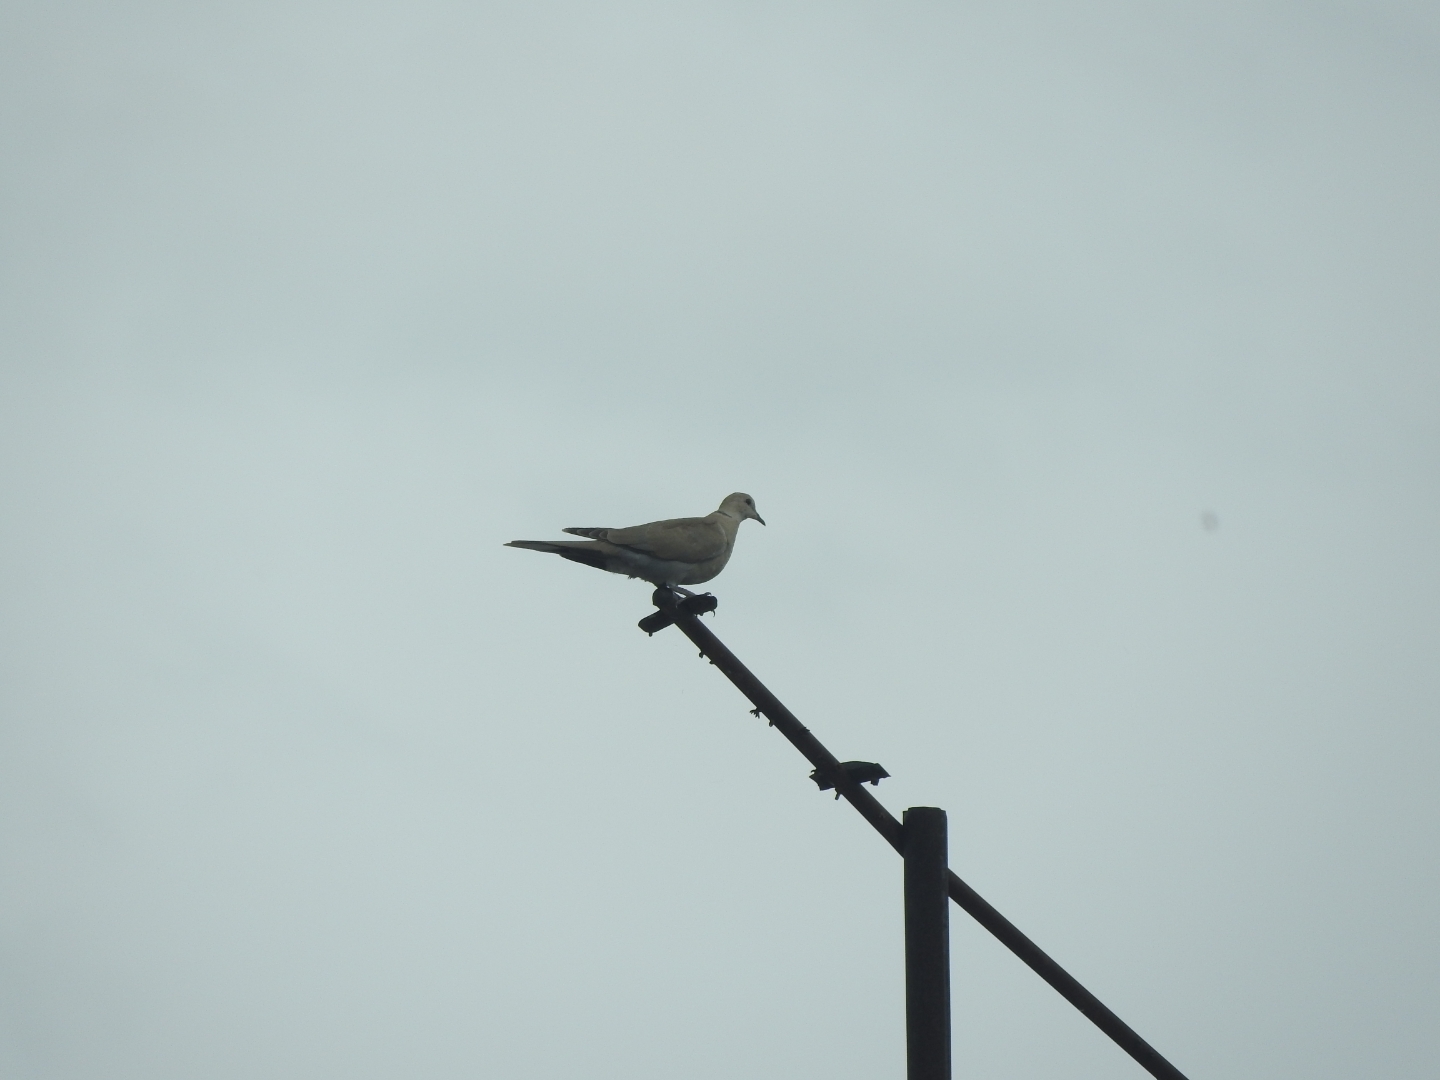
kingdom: Animalia
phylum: Chordata
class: Aves
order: Columbiformes
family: Columbidae
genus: Streptopelia
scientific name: Streptopelia decaocto
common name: Eurasian collared dove
